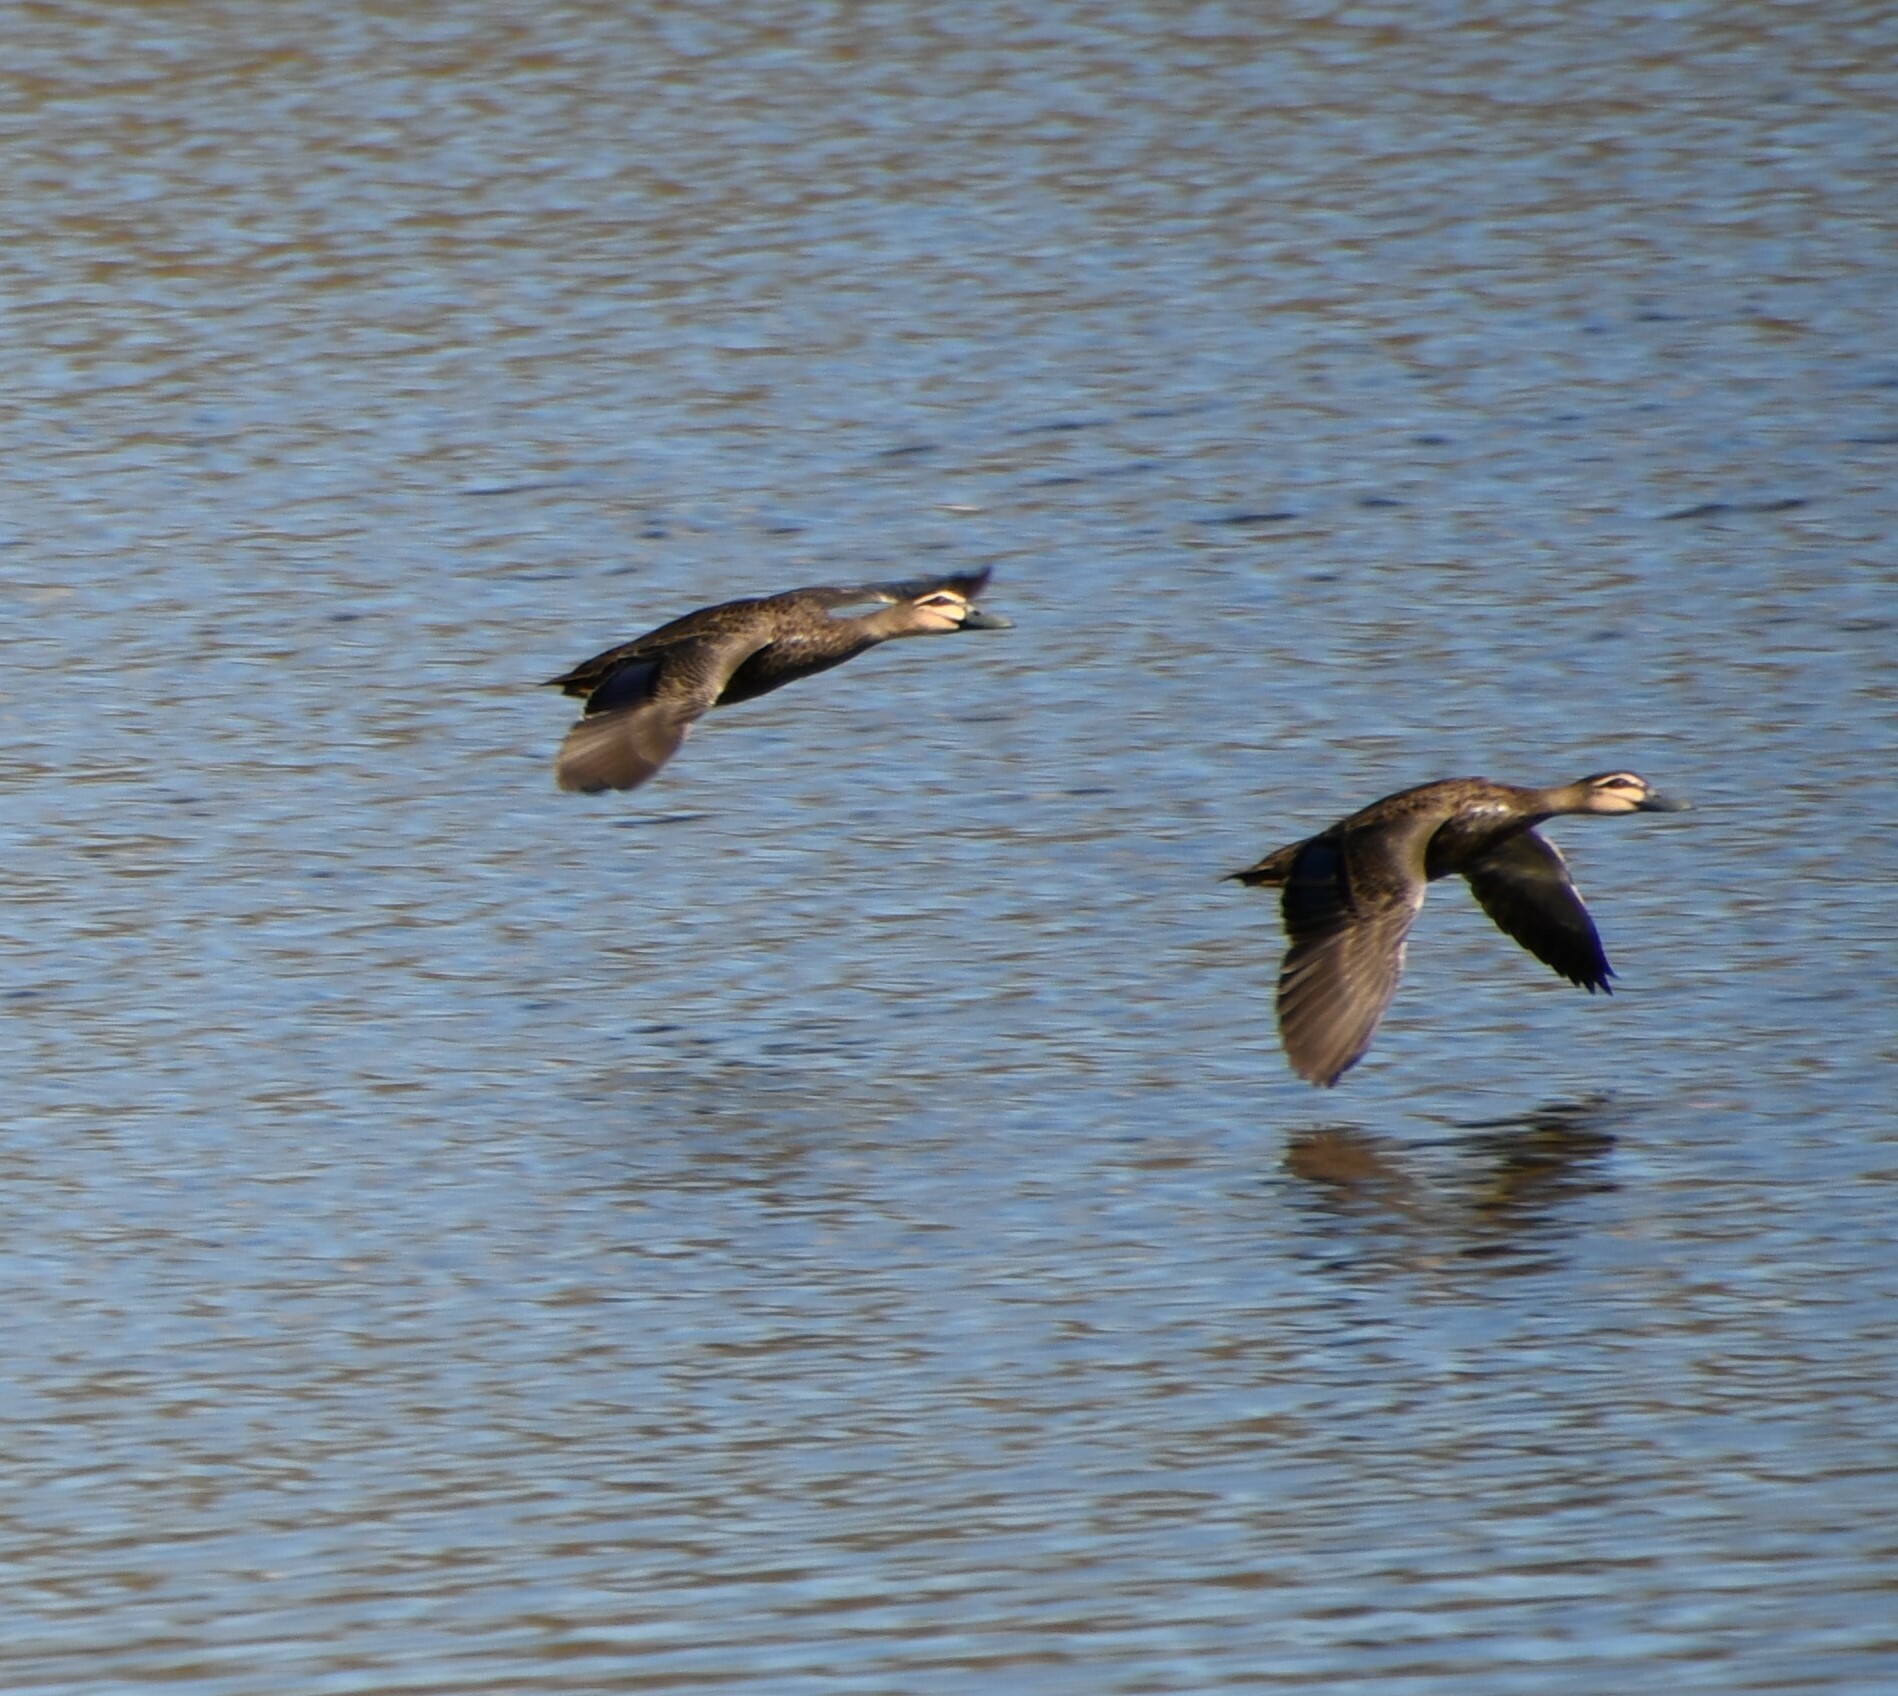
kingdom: Animalia
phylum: Chordata
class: Aves
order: Anseriformes
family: Anatidae
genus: Anas
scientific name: Anas superciliosa
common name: Pacific black duck
